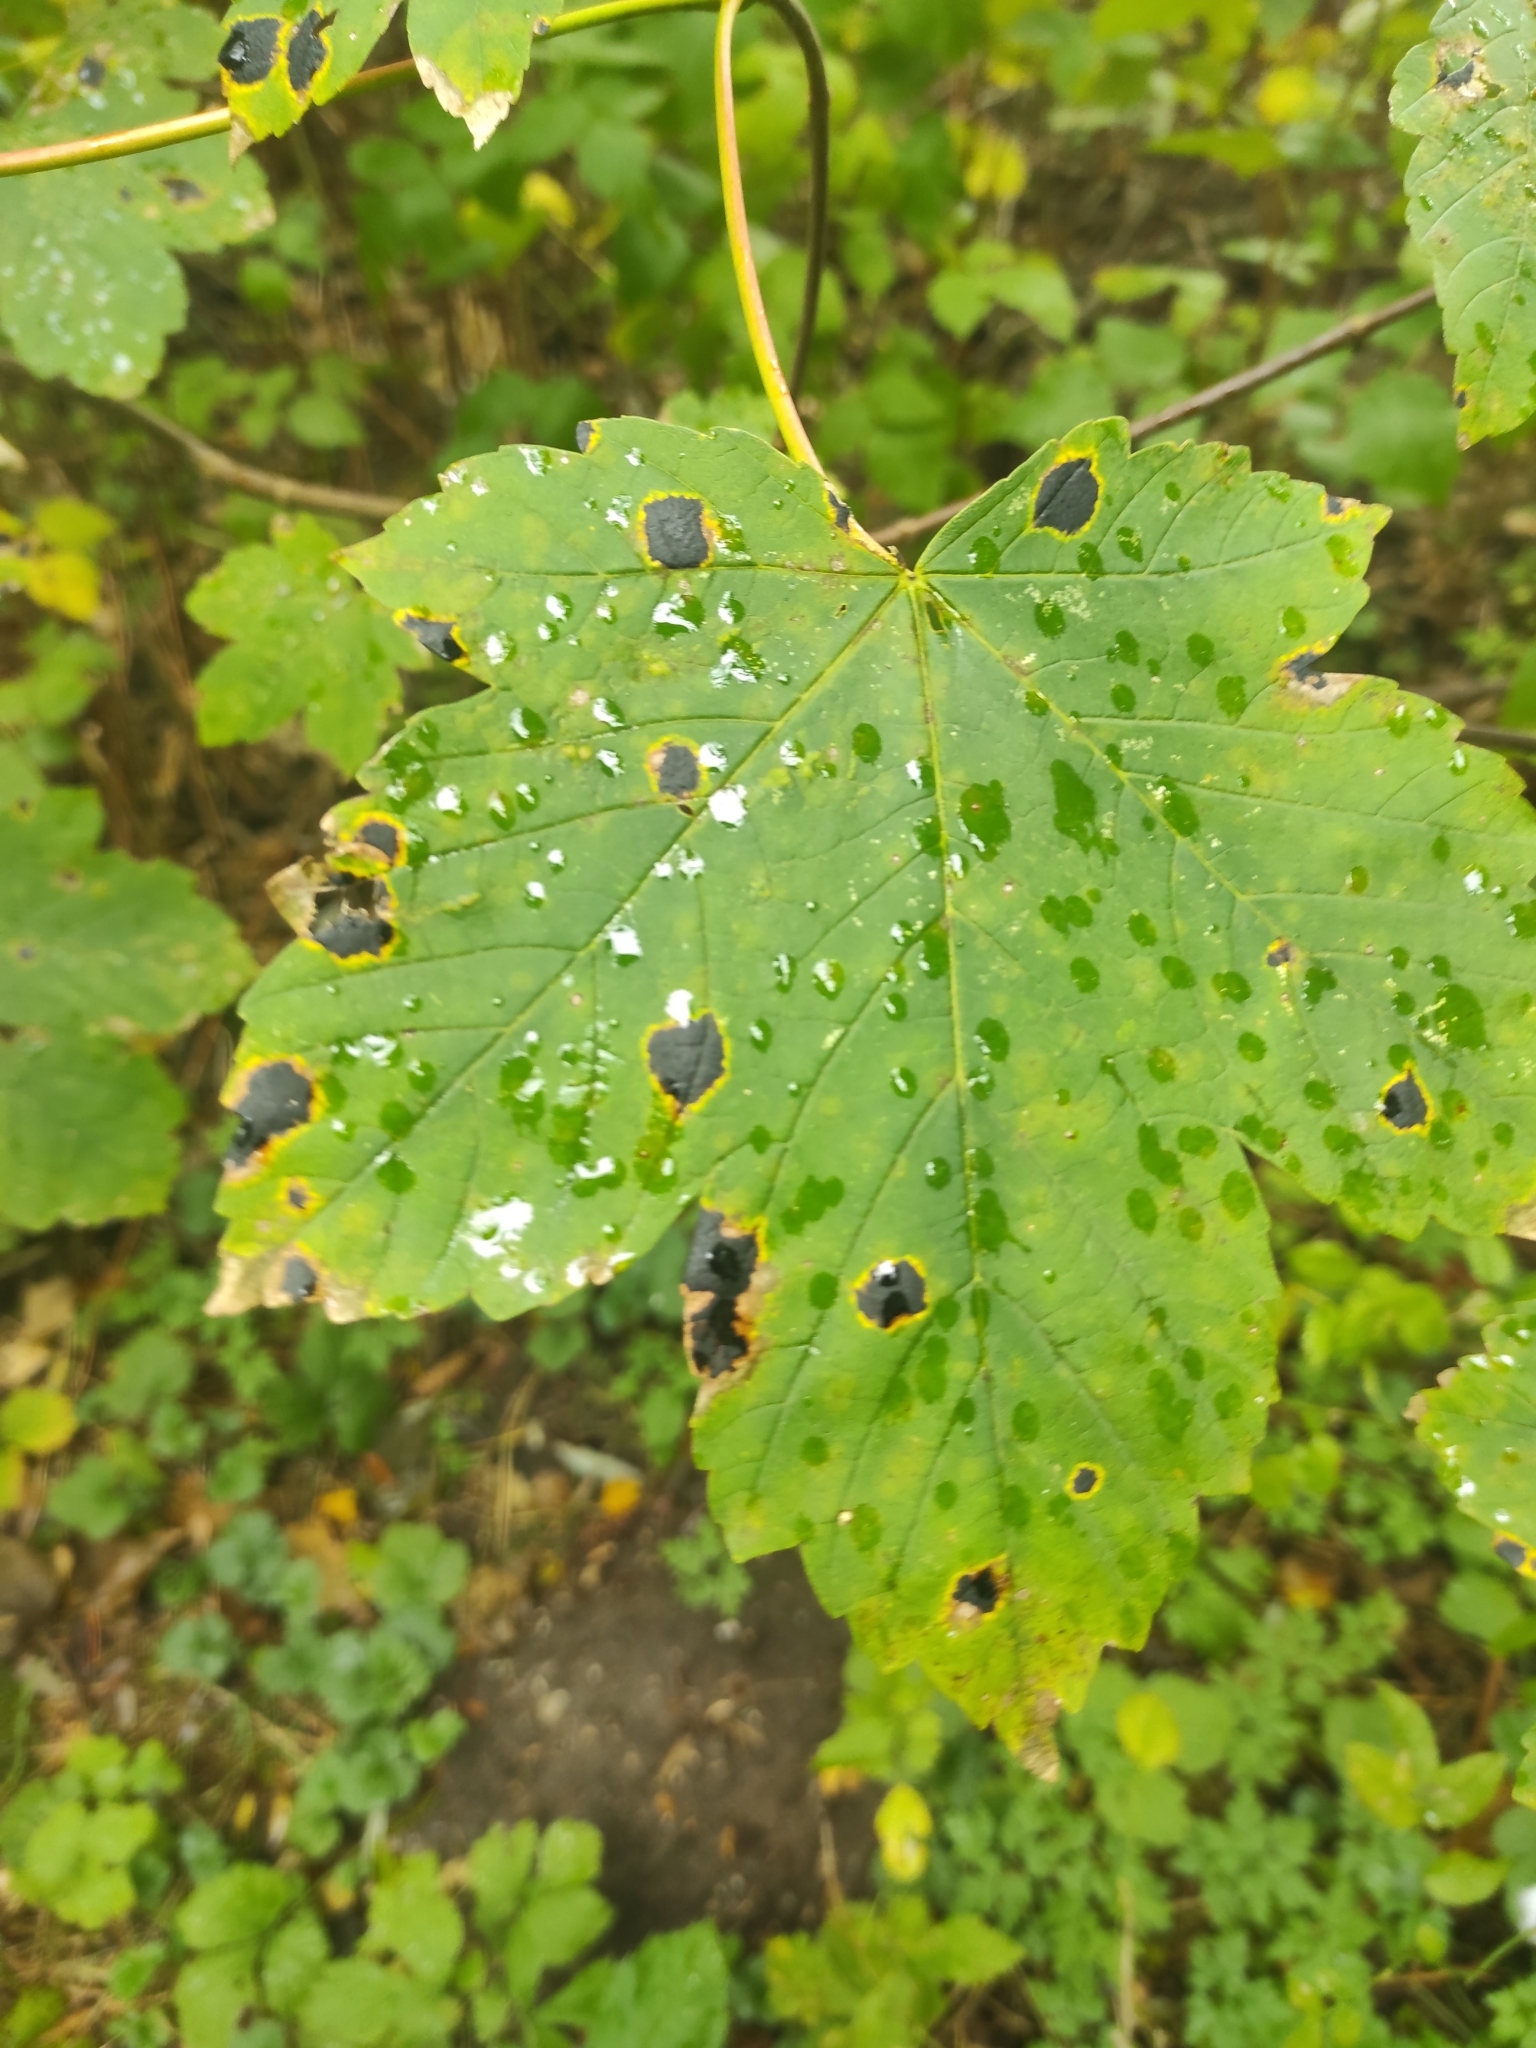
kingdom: Fungi
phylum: Ascomycota
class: Leotiomycetes
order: Rhytismatales
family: Rhytismataceae
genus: Rhytisma
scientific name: Rhytisma acerinum
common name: European tar spot
